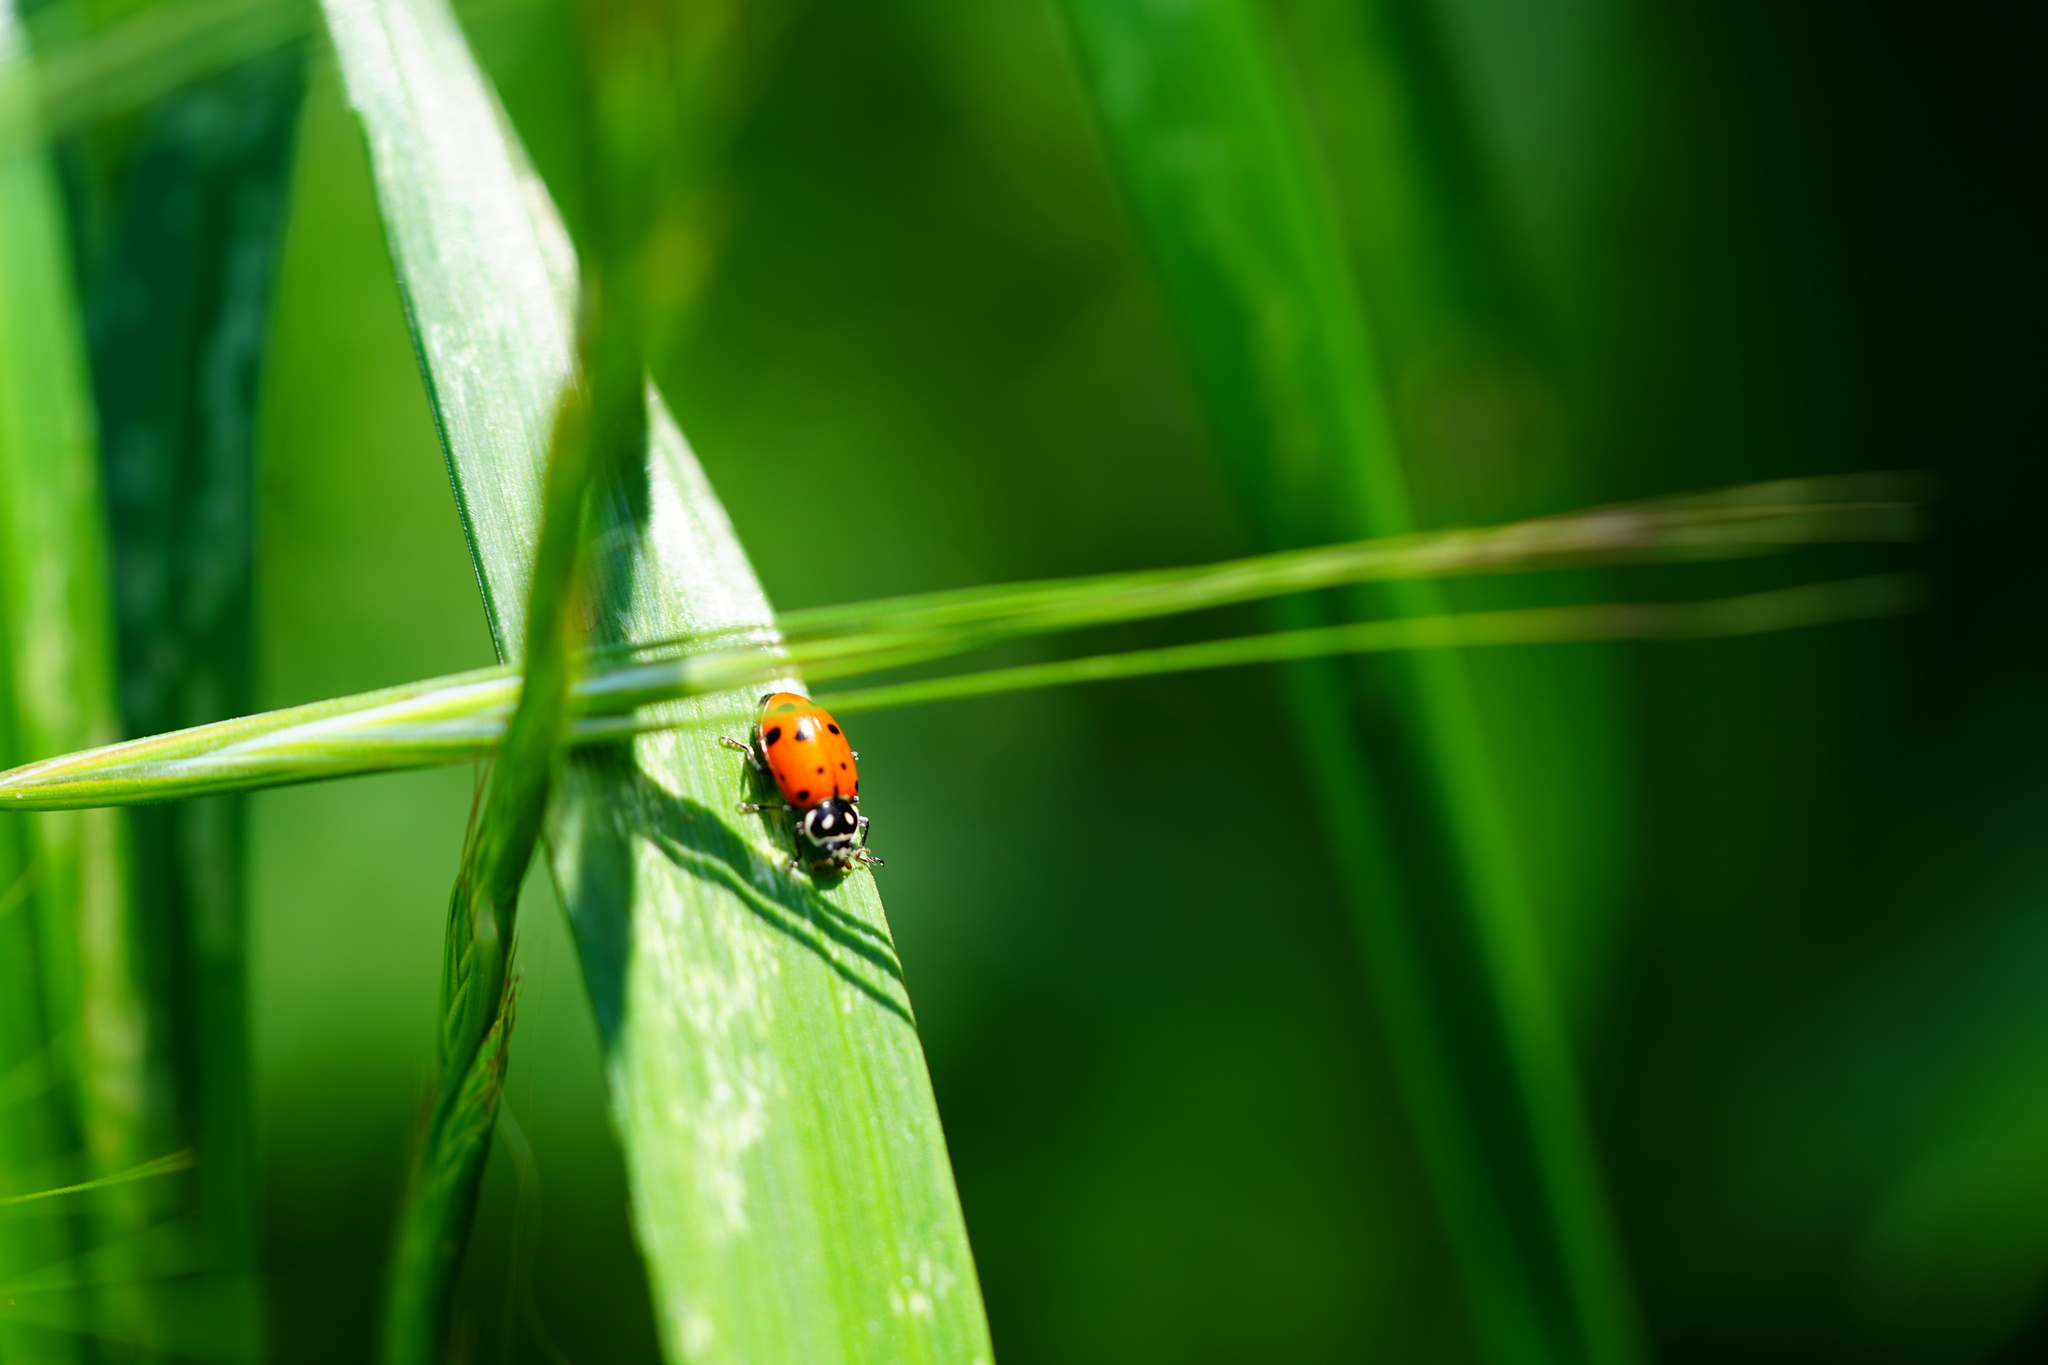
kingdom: Animalia
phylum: Arthropoda
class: Insecta
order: Coleoptera
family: Coccinellidae
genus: Hippodamia
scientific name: Hippodamia convergens
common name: Convergent lady beetle
